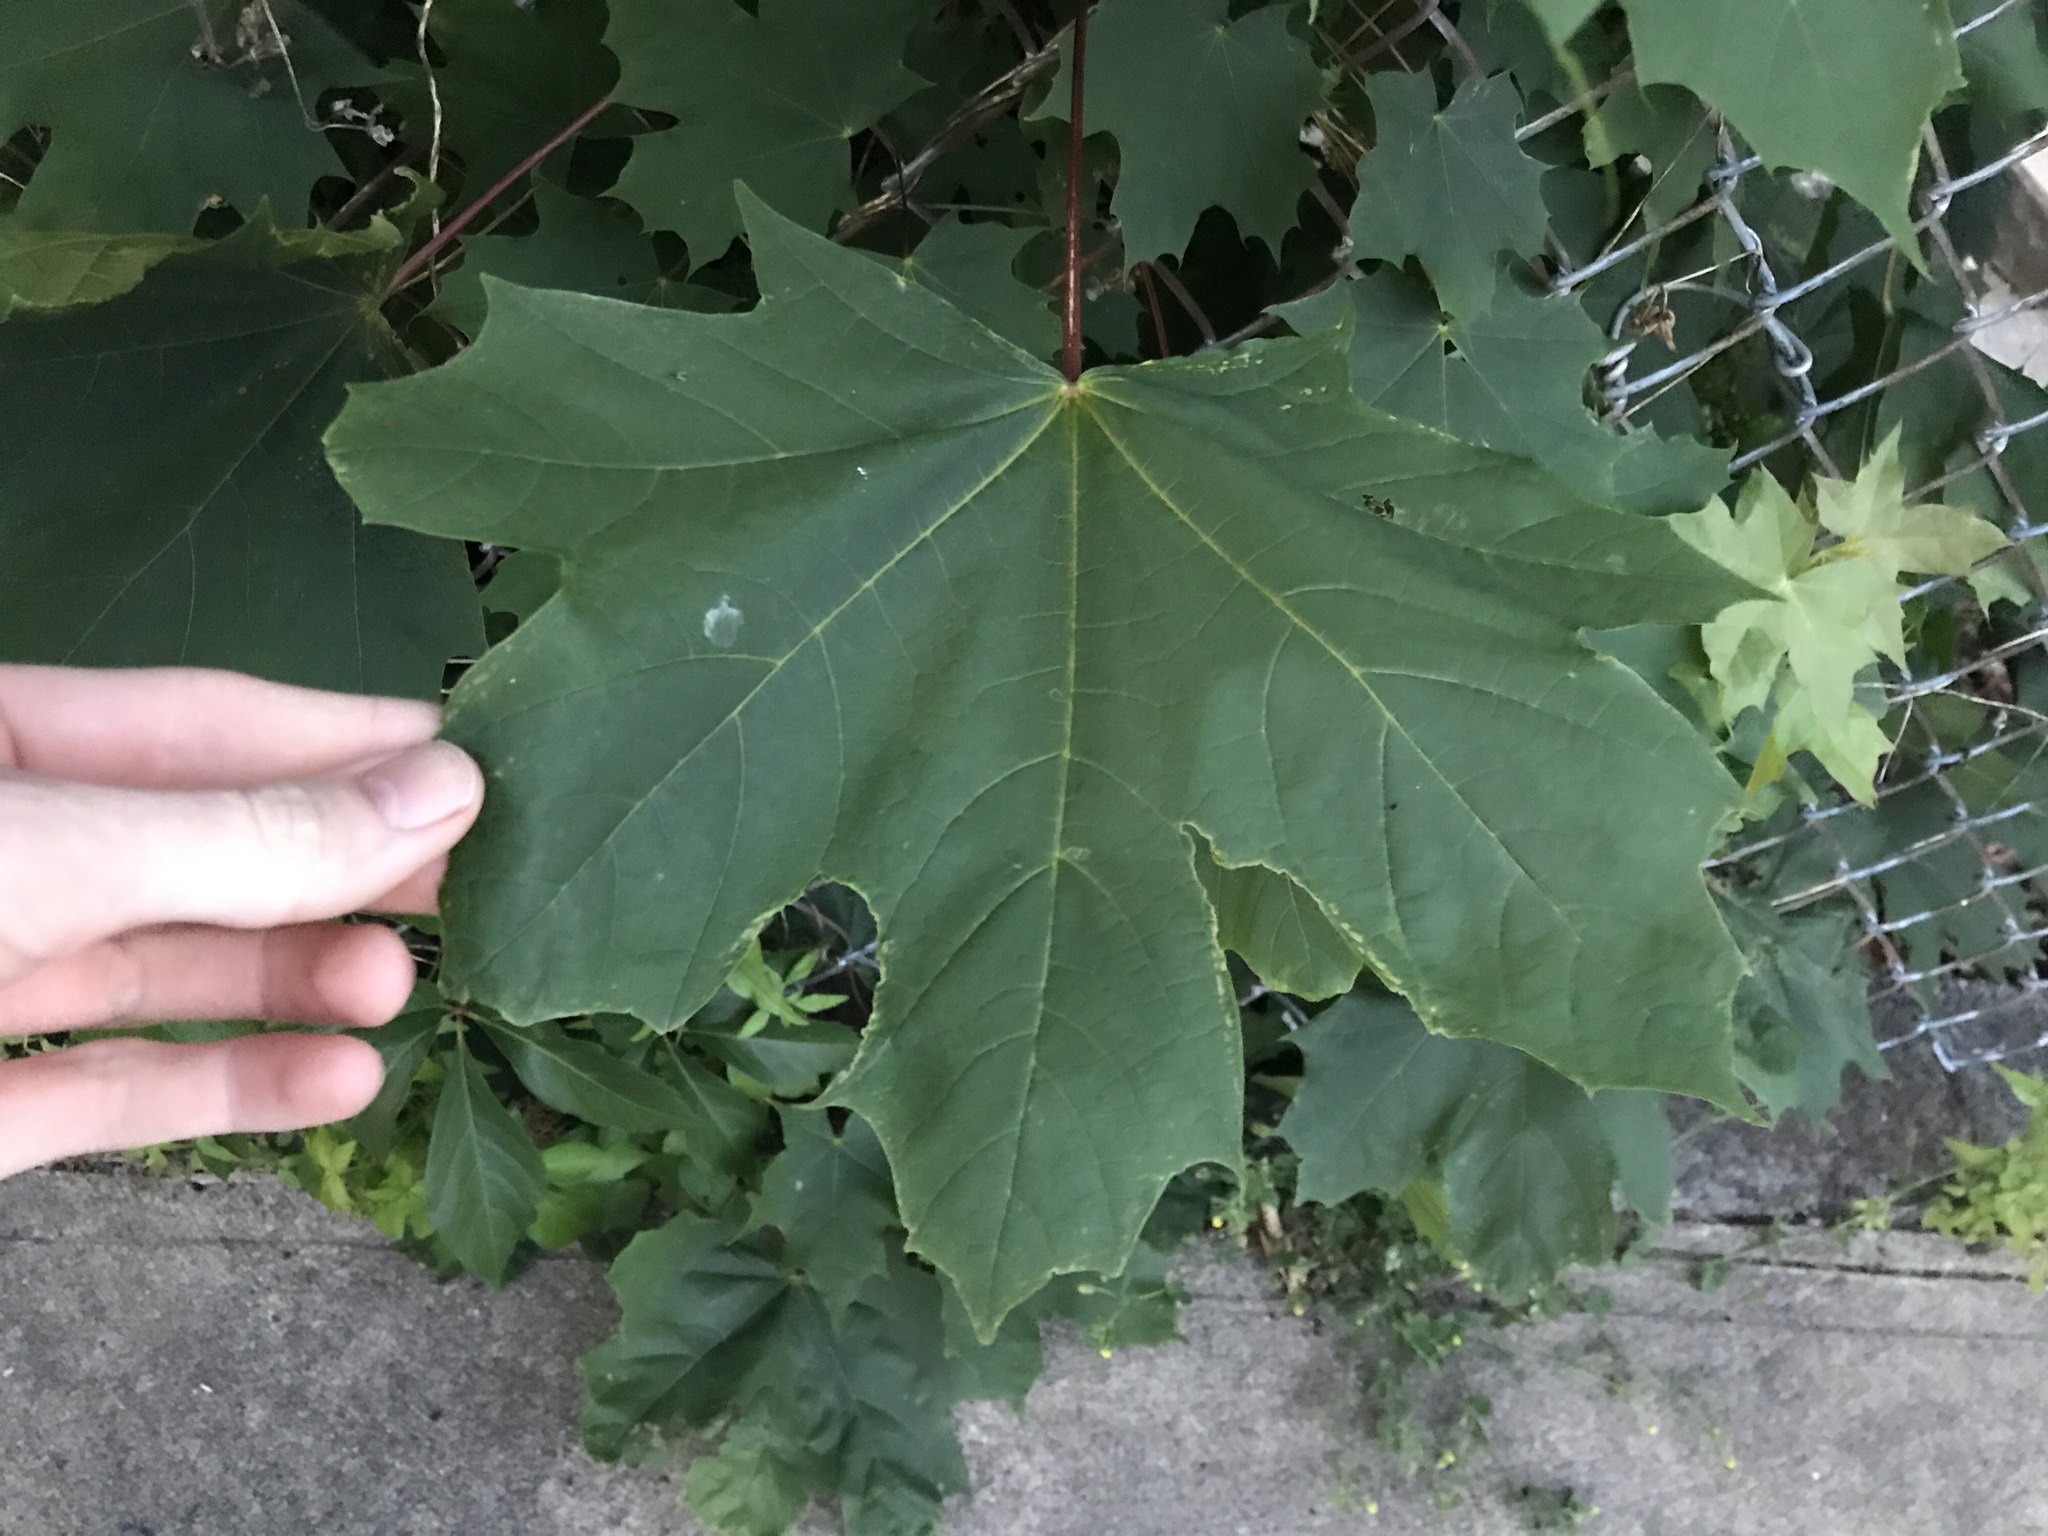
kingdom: Plantae
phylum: Tracheophyta
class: Magnoliopsida
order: Sapindales
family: Sapindaceae
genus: Acer
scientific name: Acer platanoides
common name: Norway maple
